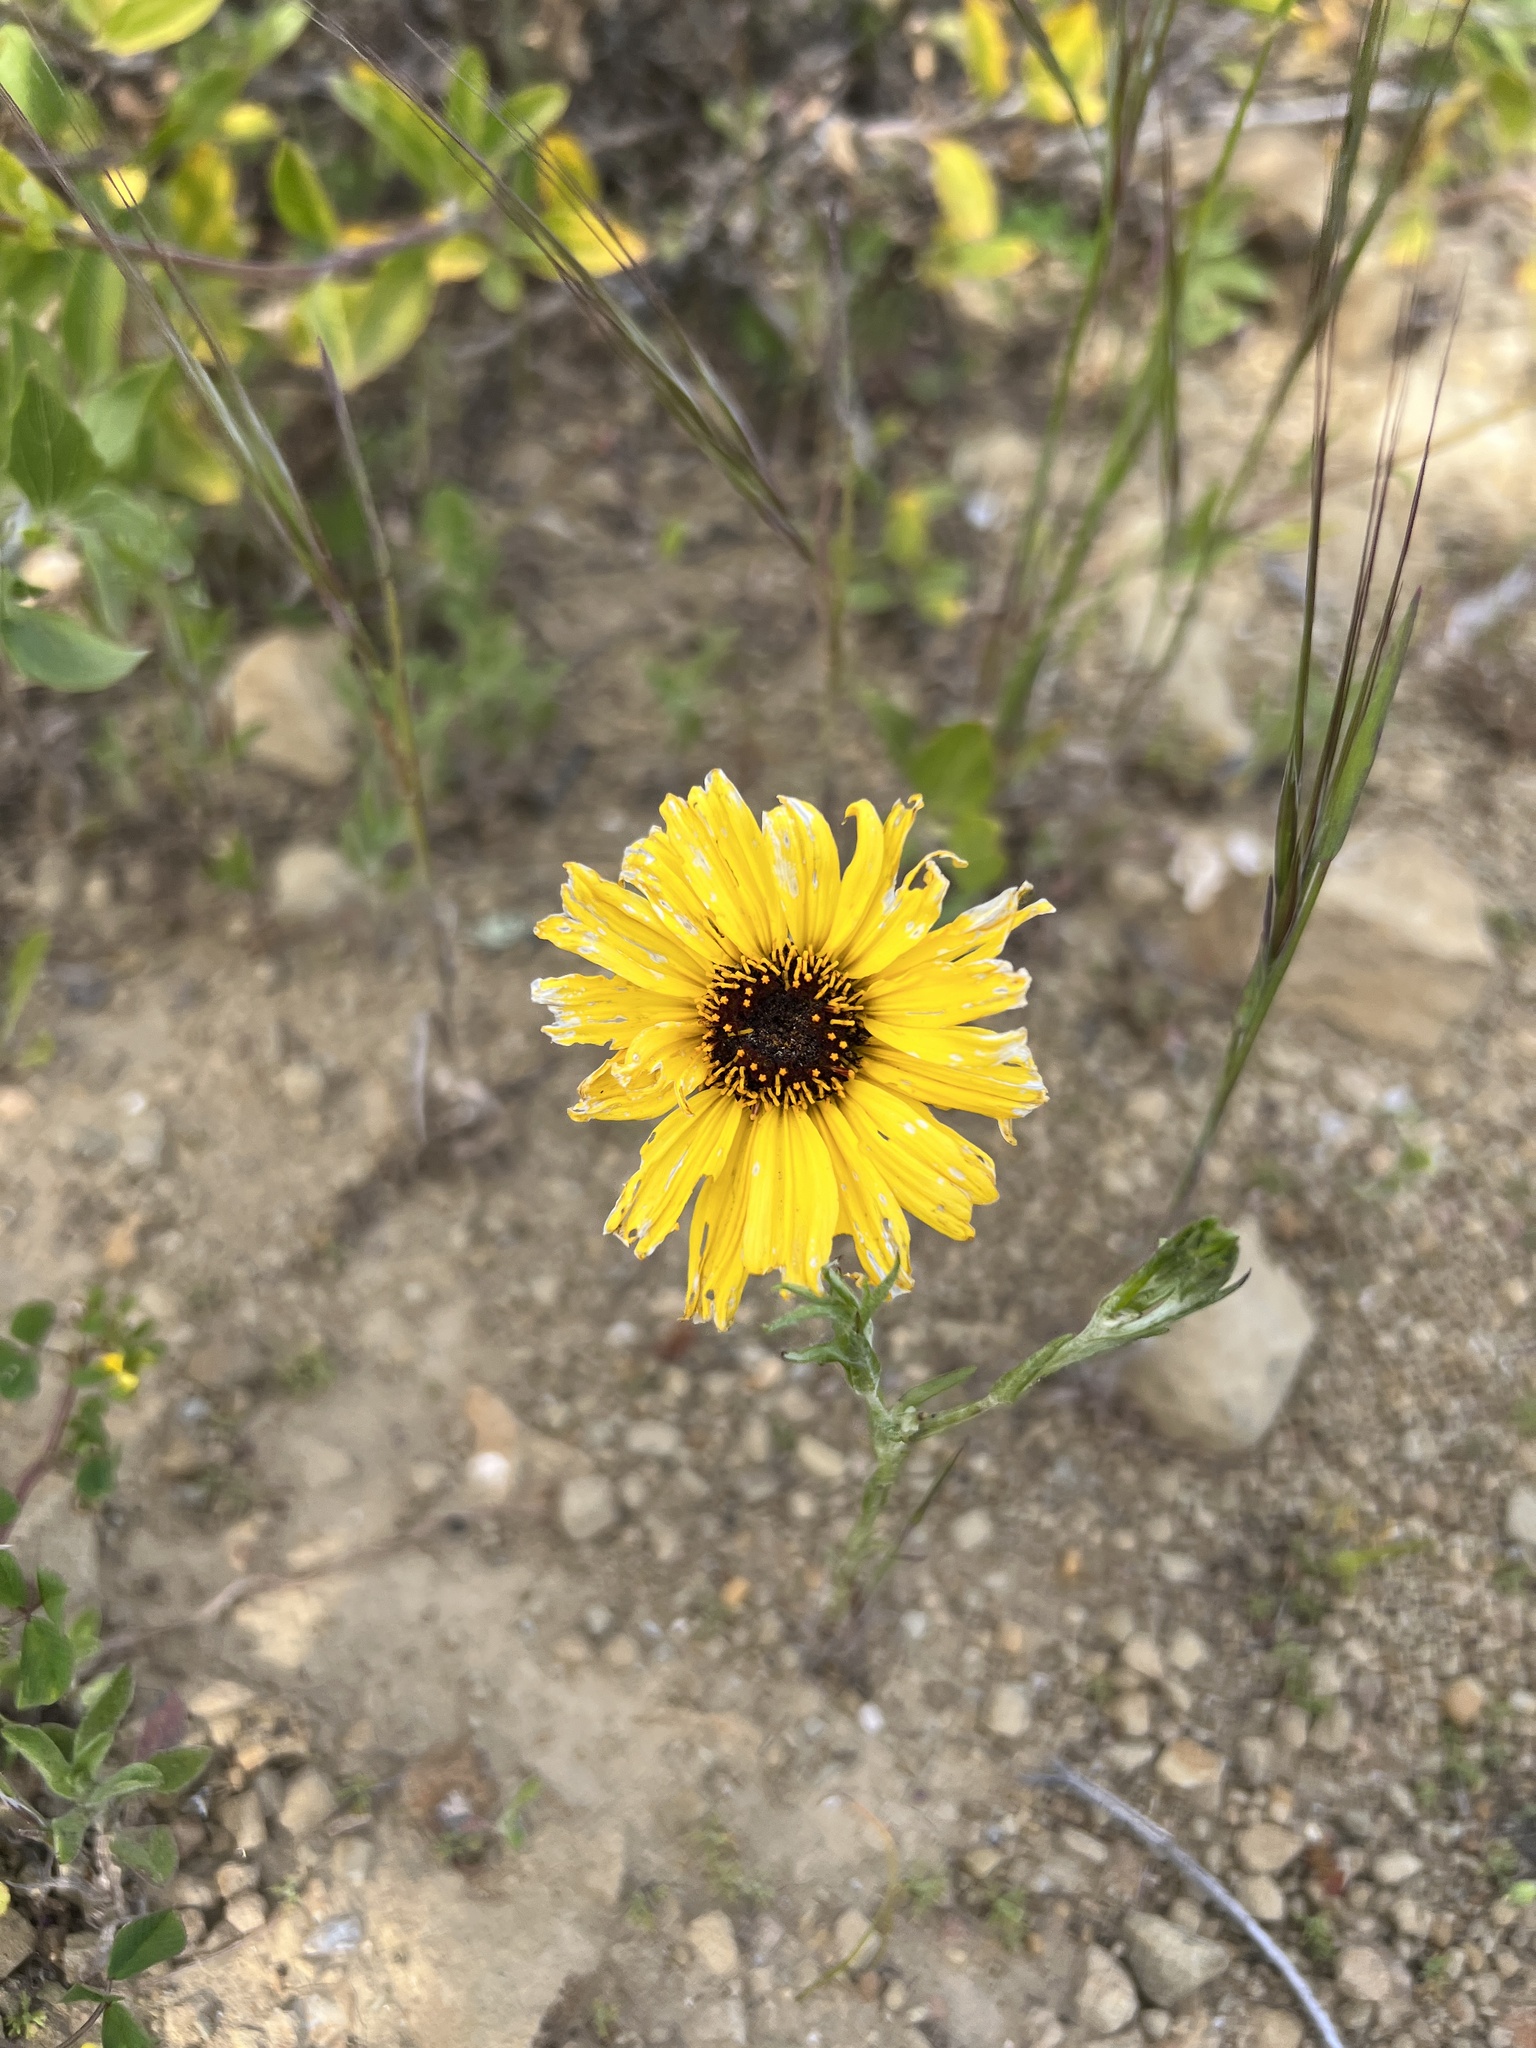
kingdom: Plantae
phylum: Tracheophyta
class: Magnoliopsida
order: Asterales
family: Asteraceae
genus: Encelia
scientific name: Encelia californica
